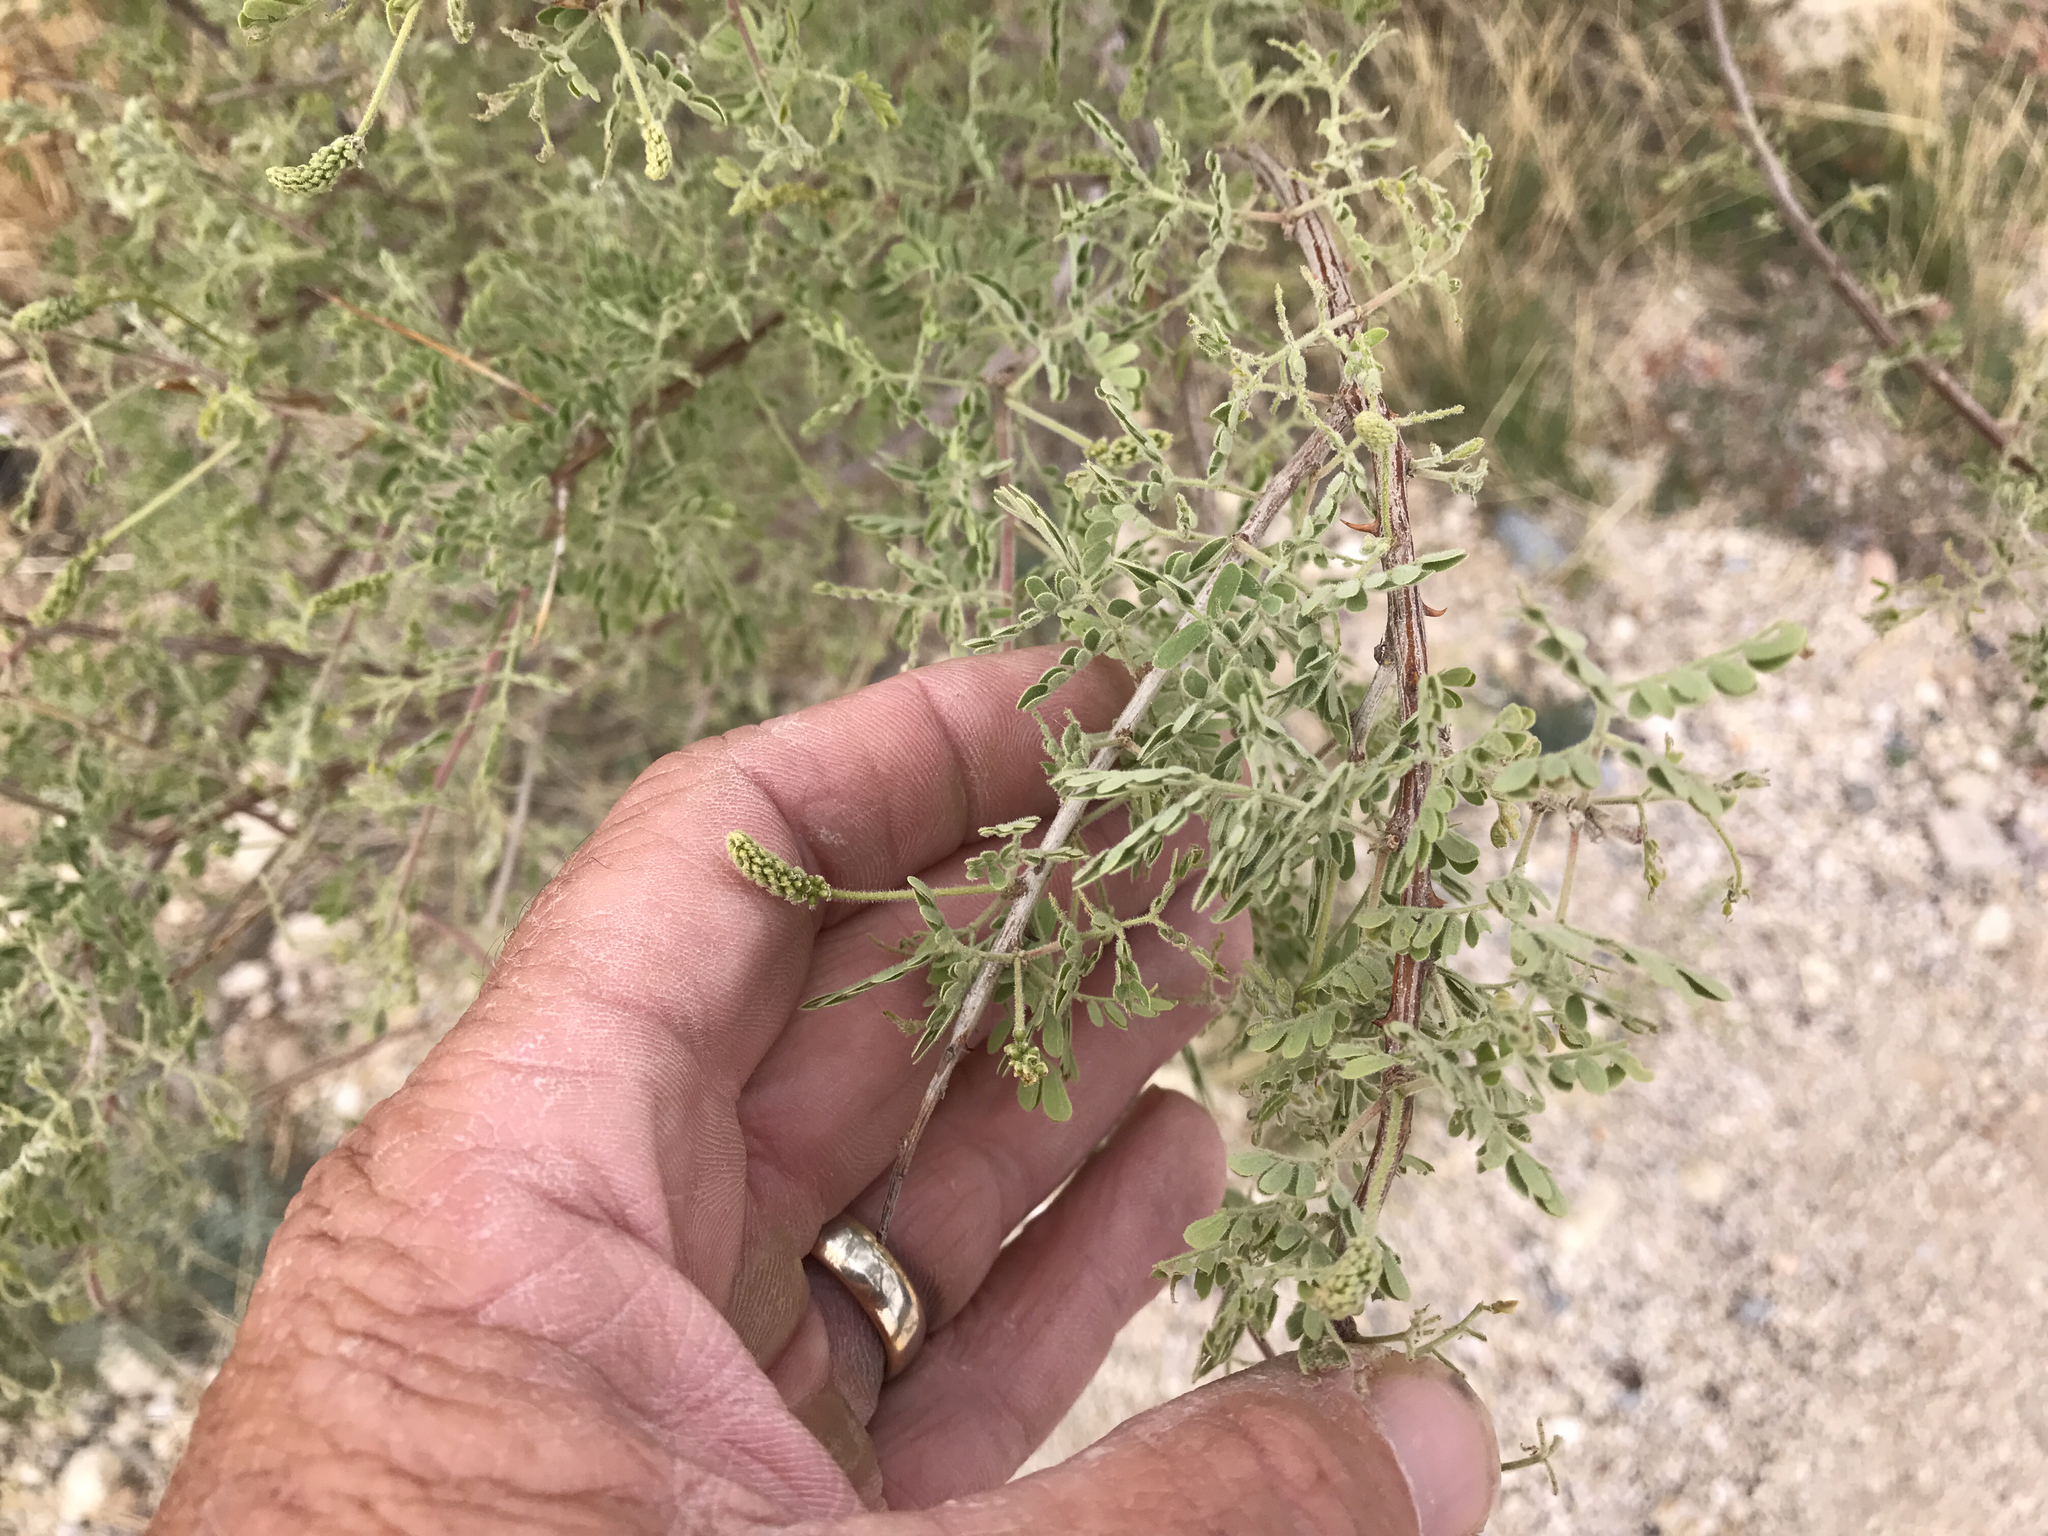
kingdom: Plantae
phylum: Tracheophyta
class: Magnoliopsida
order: Fabales
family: Fabaceae
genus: Senegalia
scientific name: Senegalia greggii
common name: Texas-mimosa
